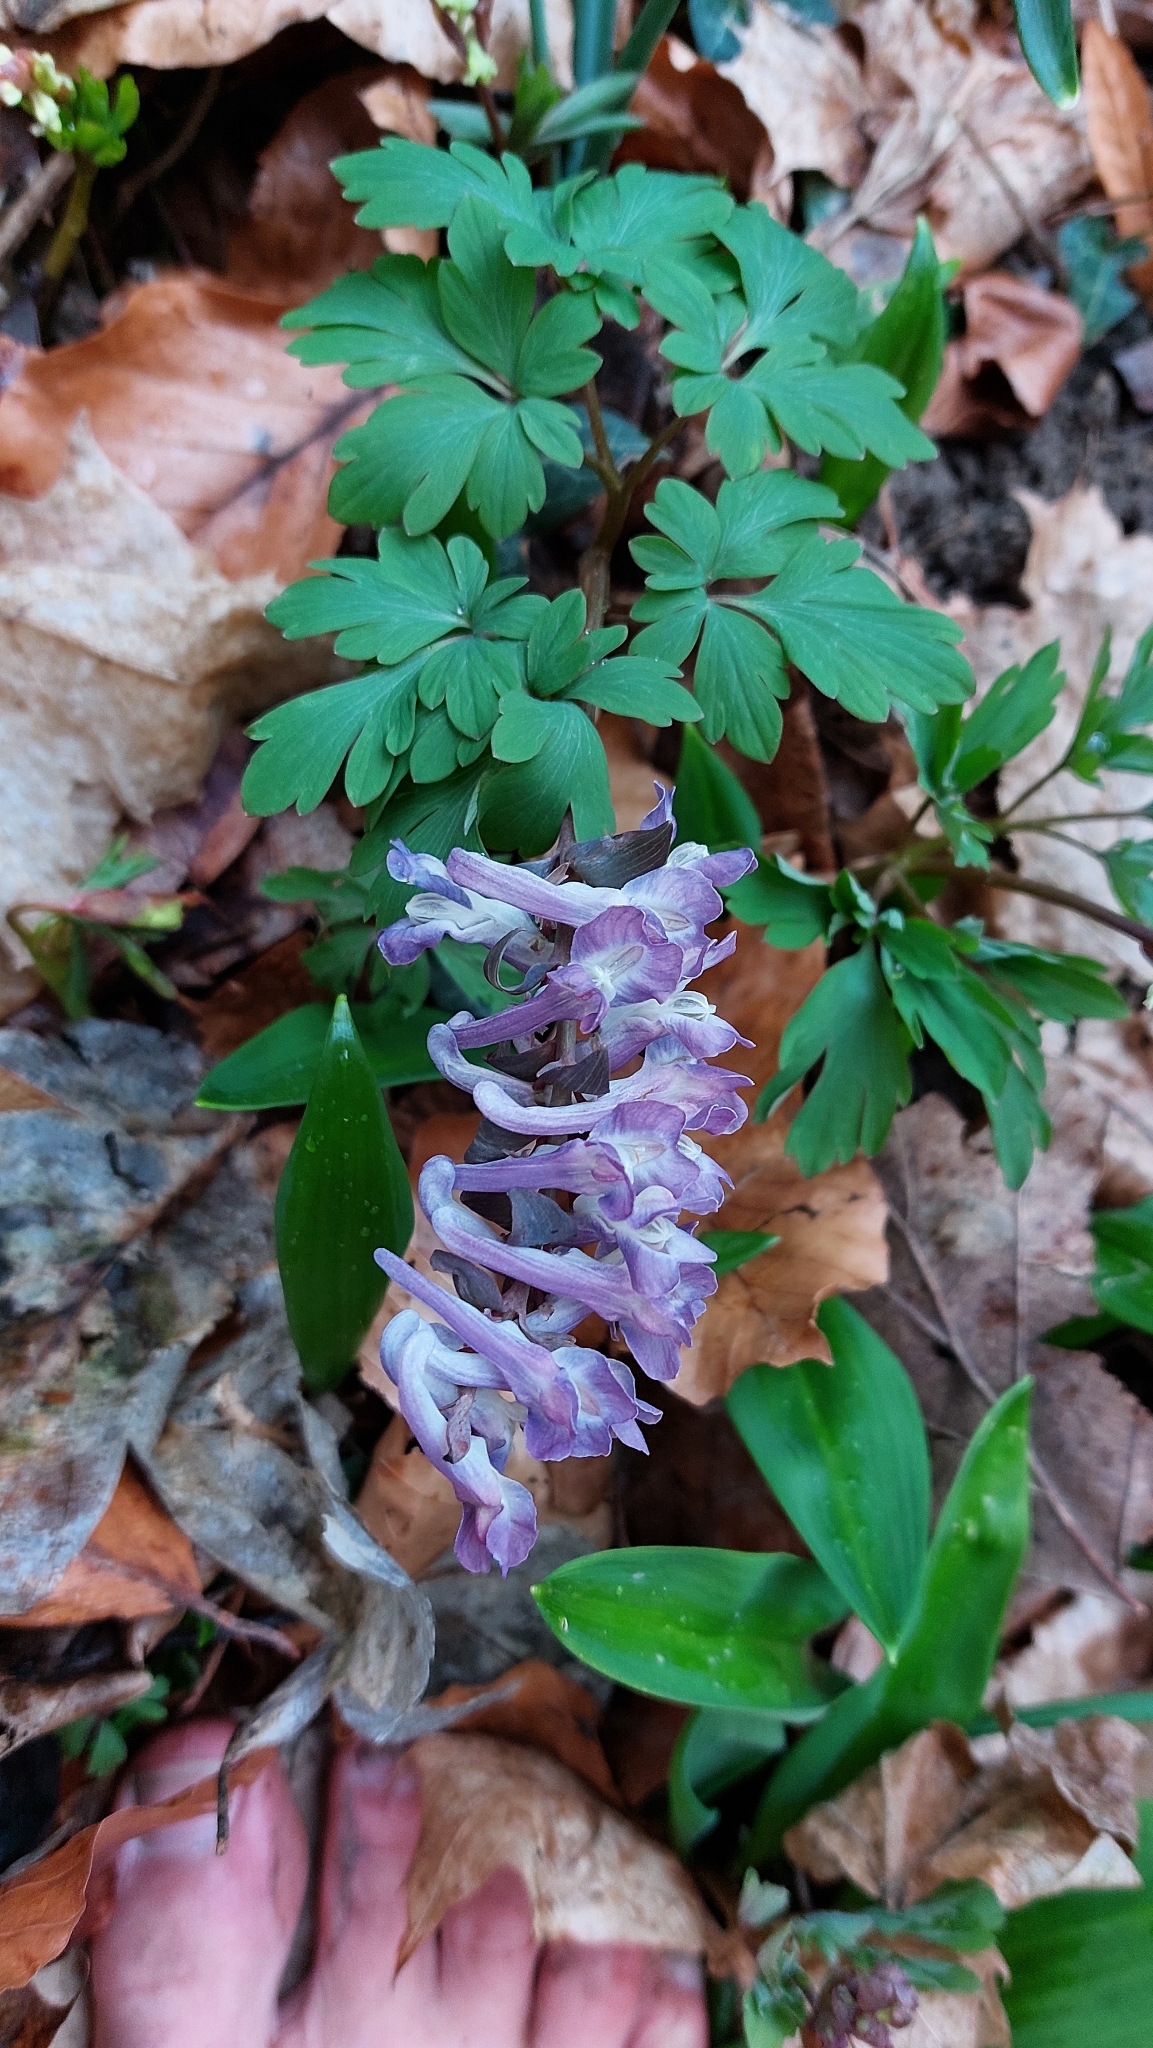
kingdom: Plantae
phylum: Tracheophyta
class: Magnoliopsida
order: Ranunculales
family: Papaveraceae
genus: Corydalis
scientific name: Corydalis cava
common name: Hollowroot
